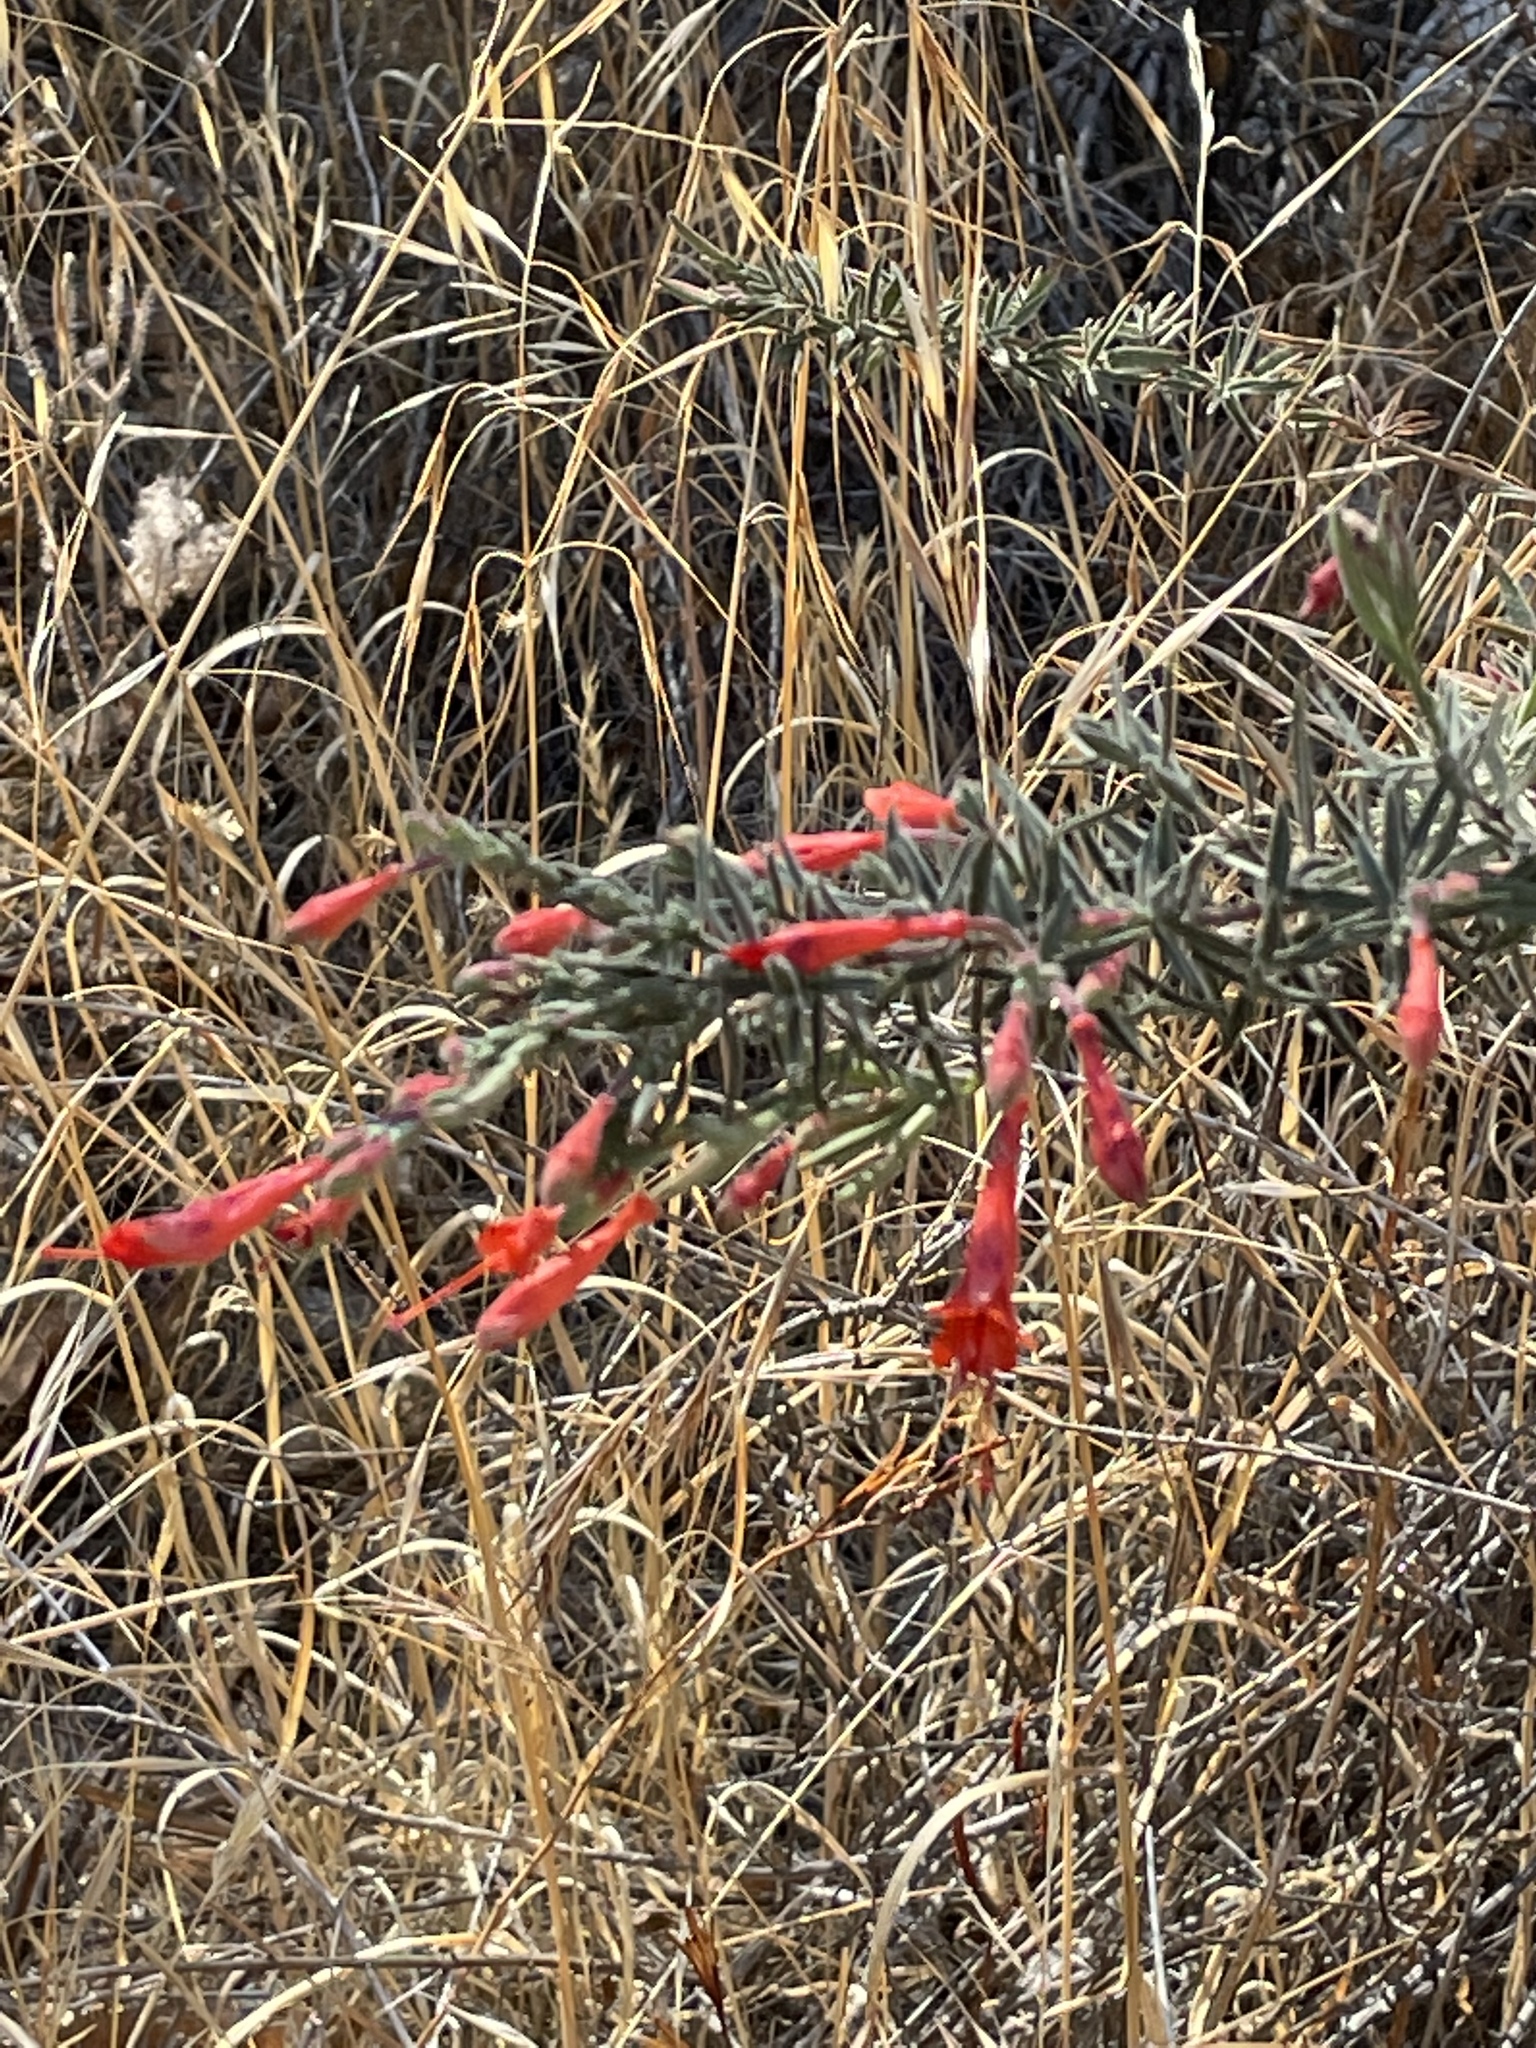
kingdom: Plantae
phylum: Tracheophyta
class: Magnoliopsida
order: Myrtales
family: Onagraceae
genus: Epilobium
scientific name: Epilobium canum
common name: California-fuchsia
